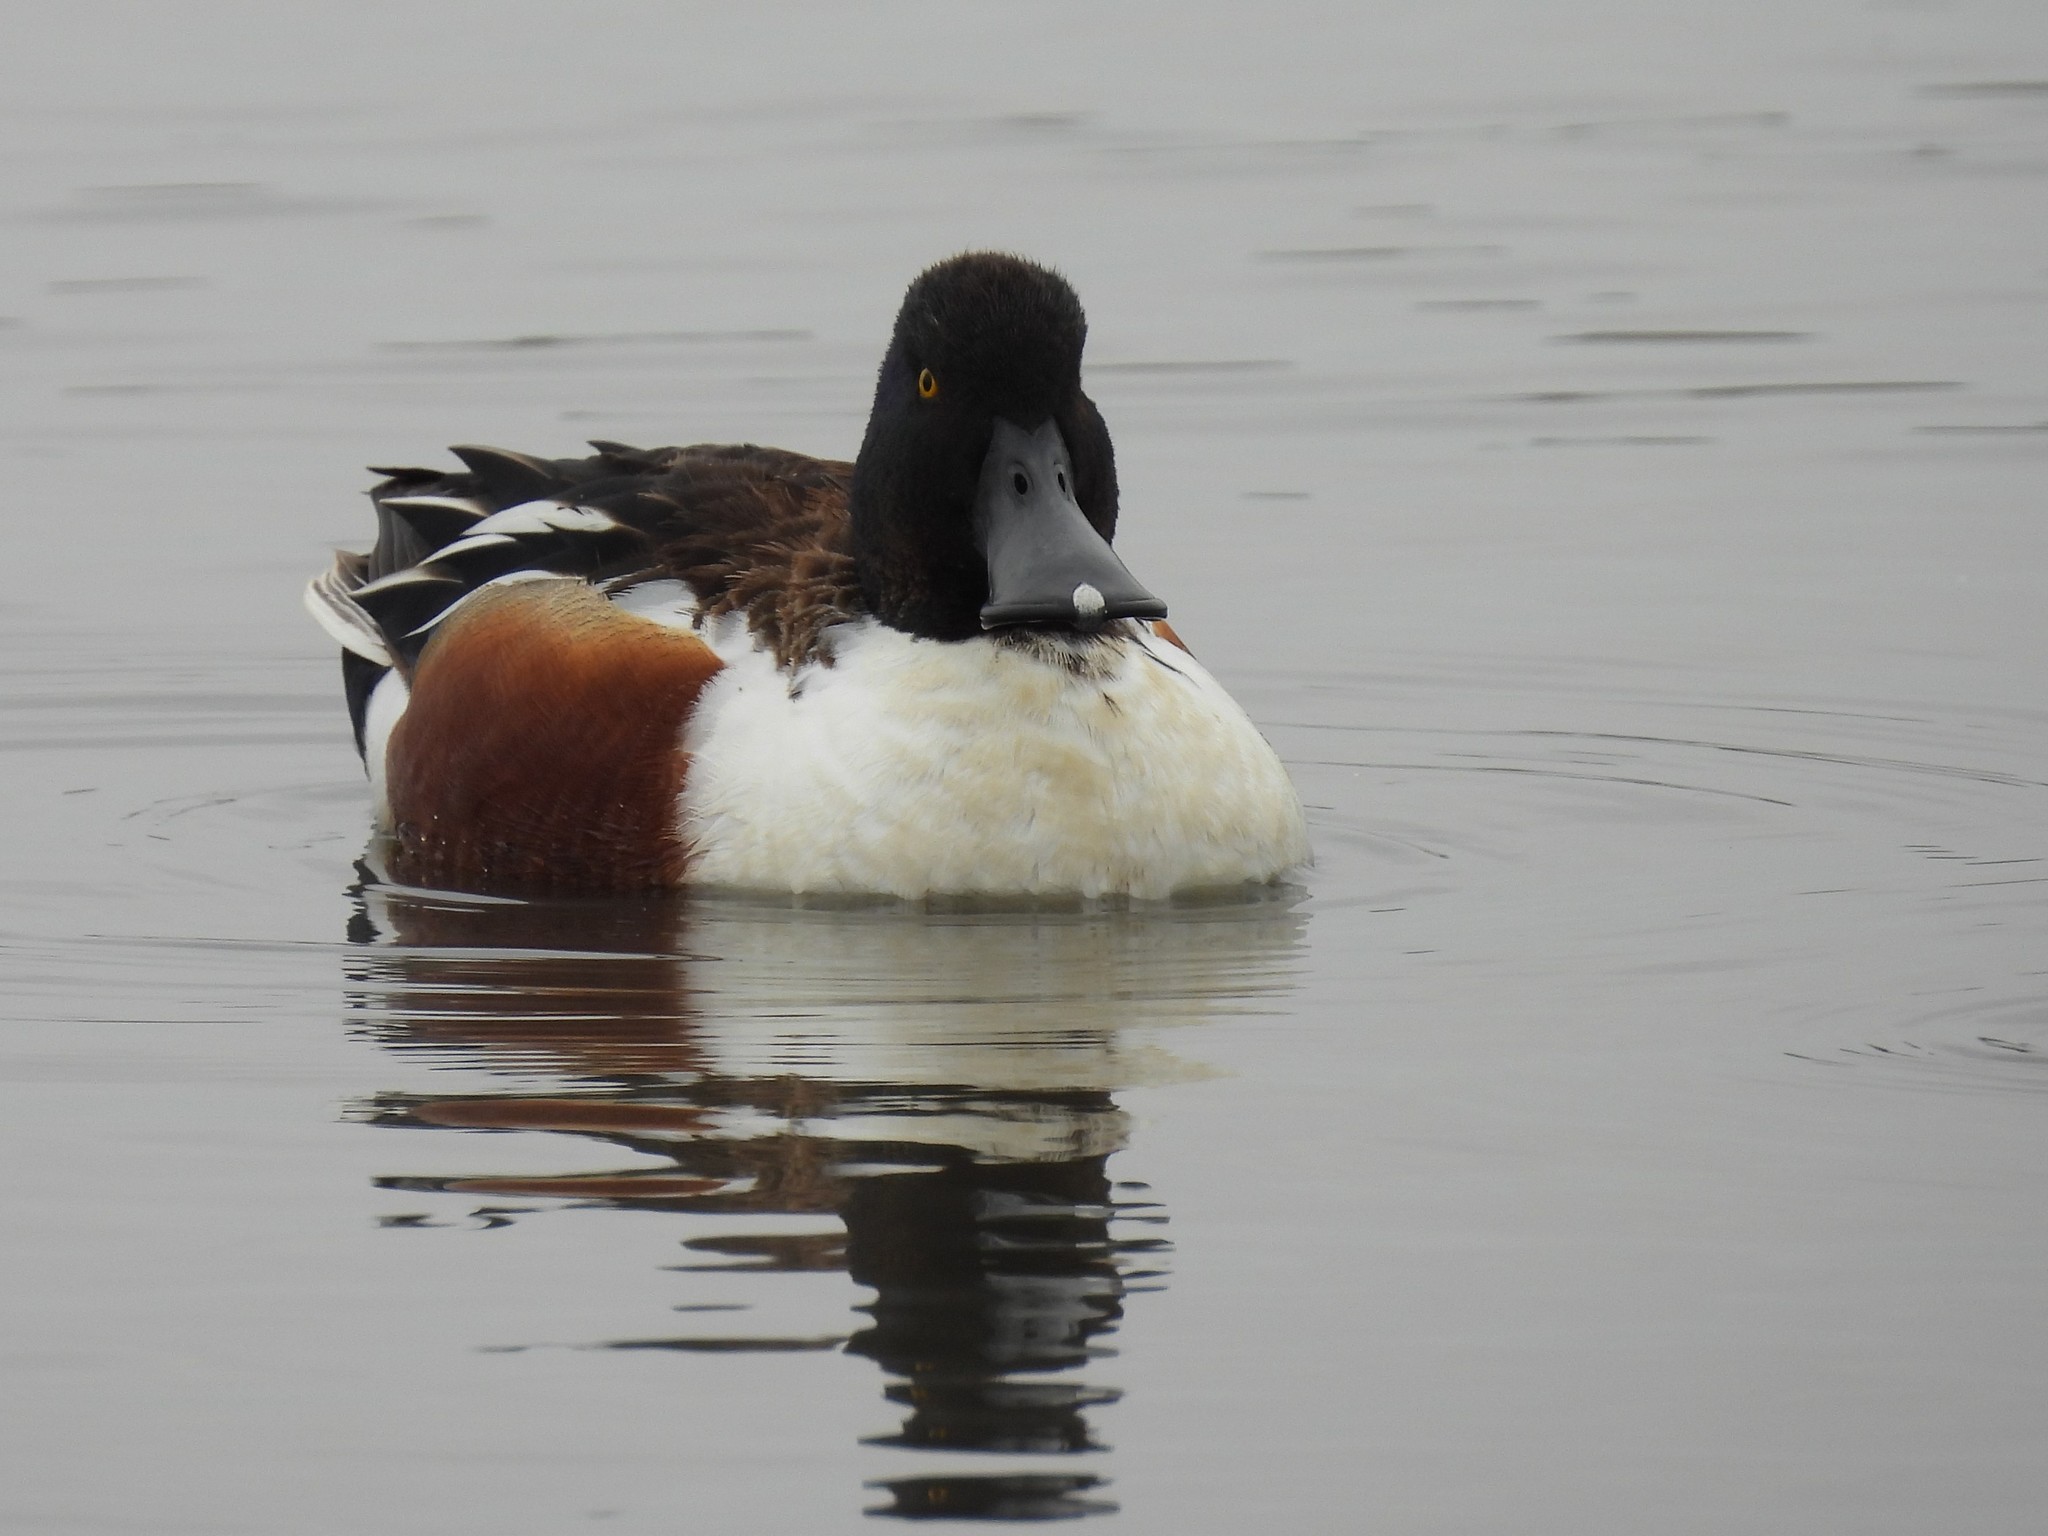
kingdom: Animalia
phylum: Chordata
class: Aves
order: Anseriformes
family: Anatidae
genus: Spatula
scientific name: Spatula clypeata
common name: Northern shoveler
